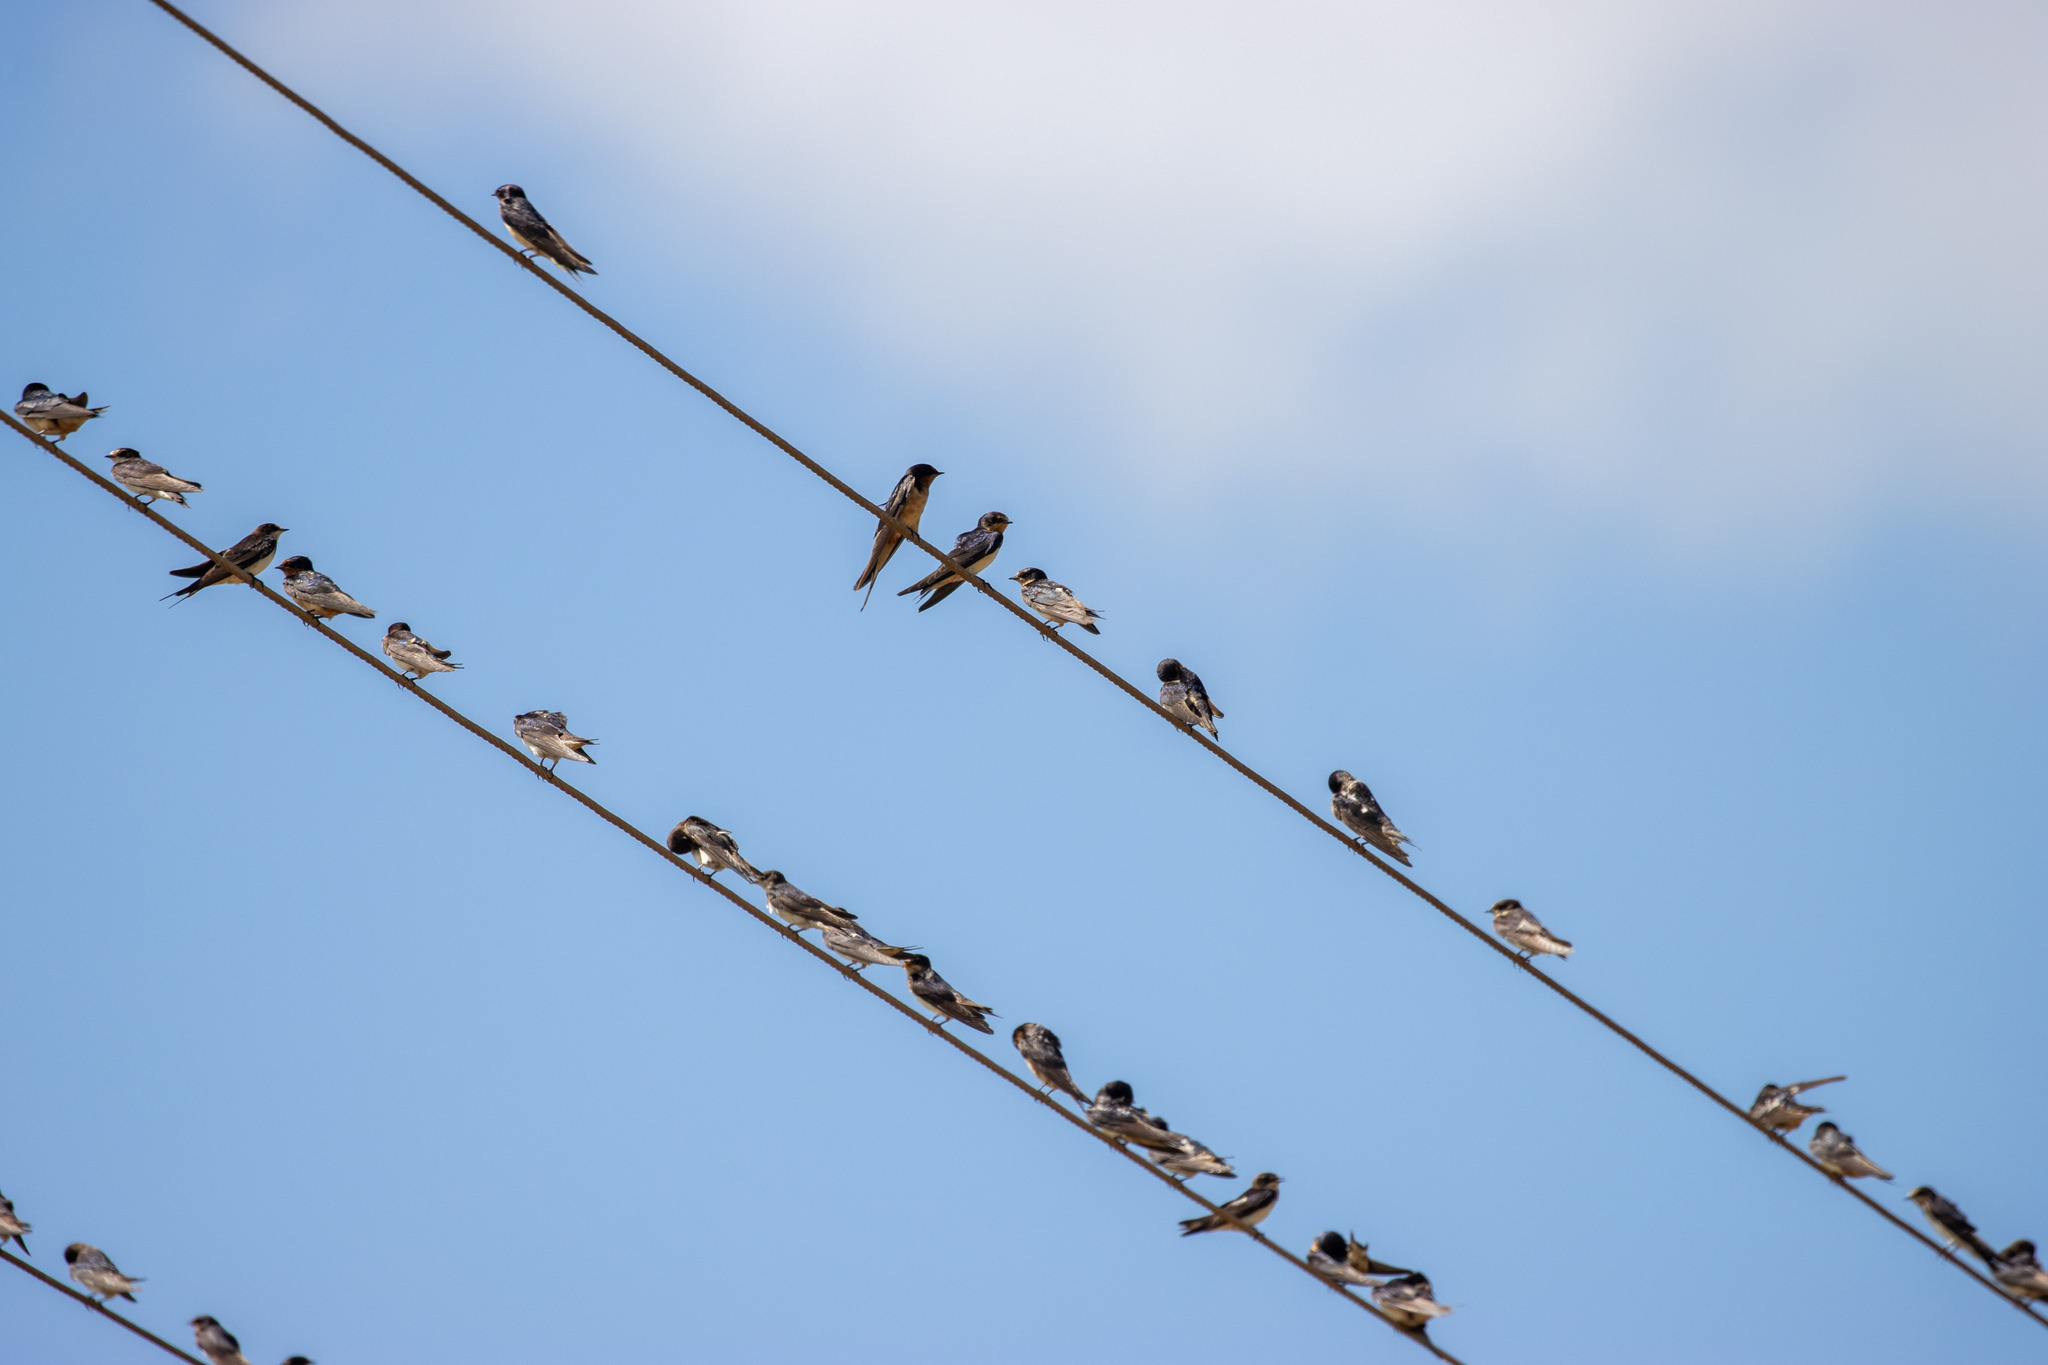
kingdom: Animalia
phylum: Chordata
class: Aves
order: Passeriformes
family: Hirundinidae
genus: Hirundo
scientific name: Hirundo rustica
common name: Barn swallow
